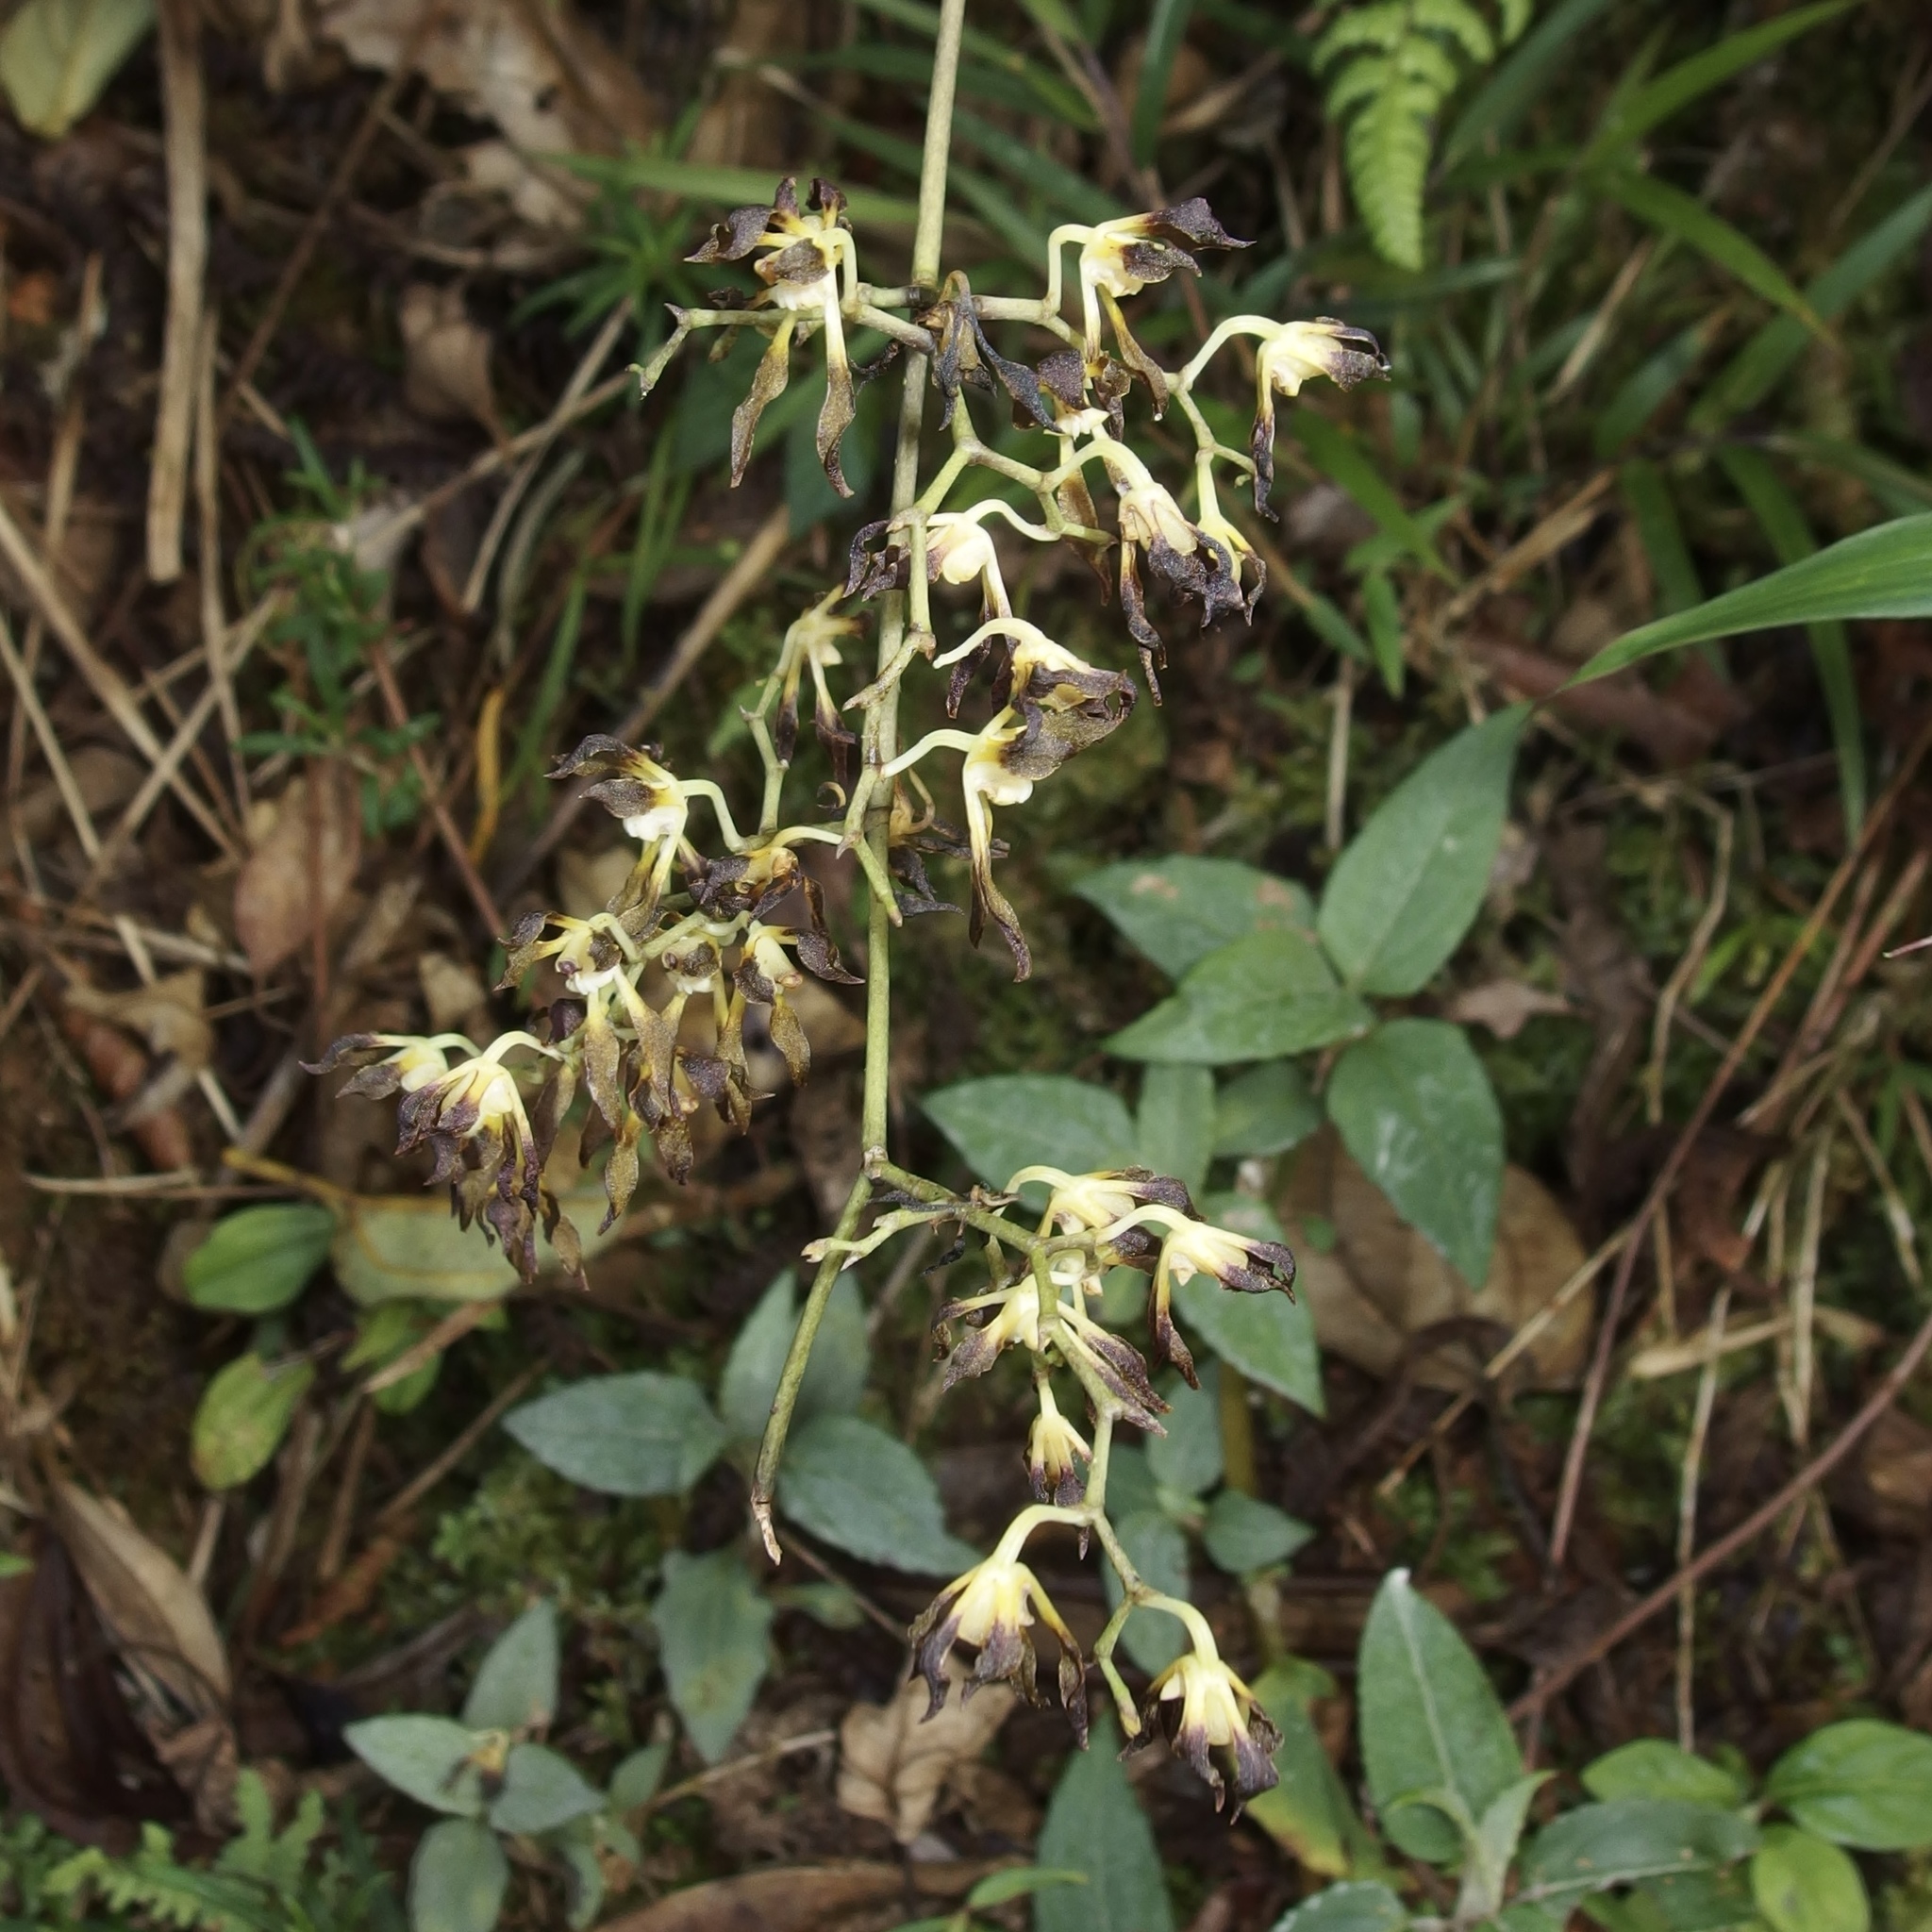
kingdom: Plantae
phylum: Tracheophyta
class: Liliopsida
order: Asparagales
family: Orchidaceae
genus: Cyrtochilum
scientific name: Cyrtochilum myanthum
